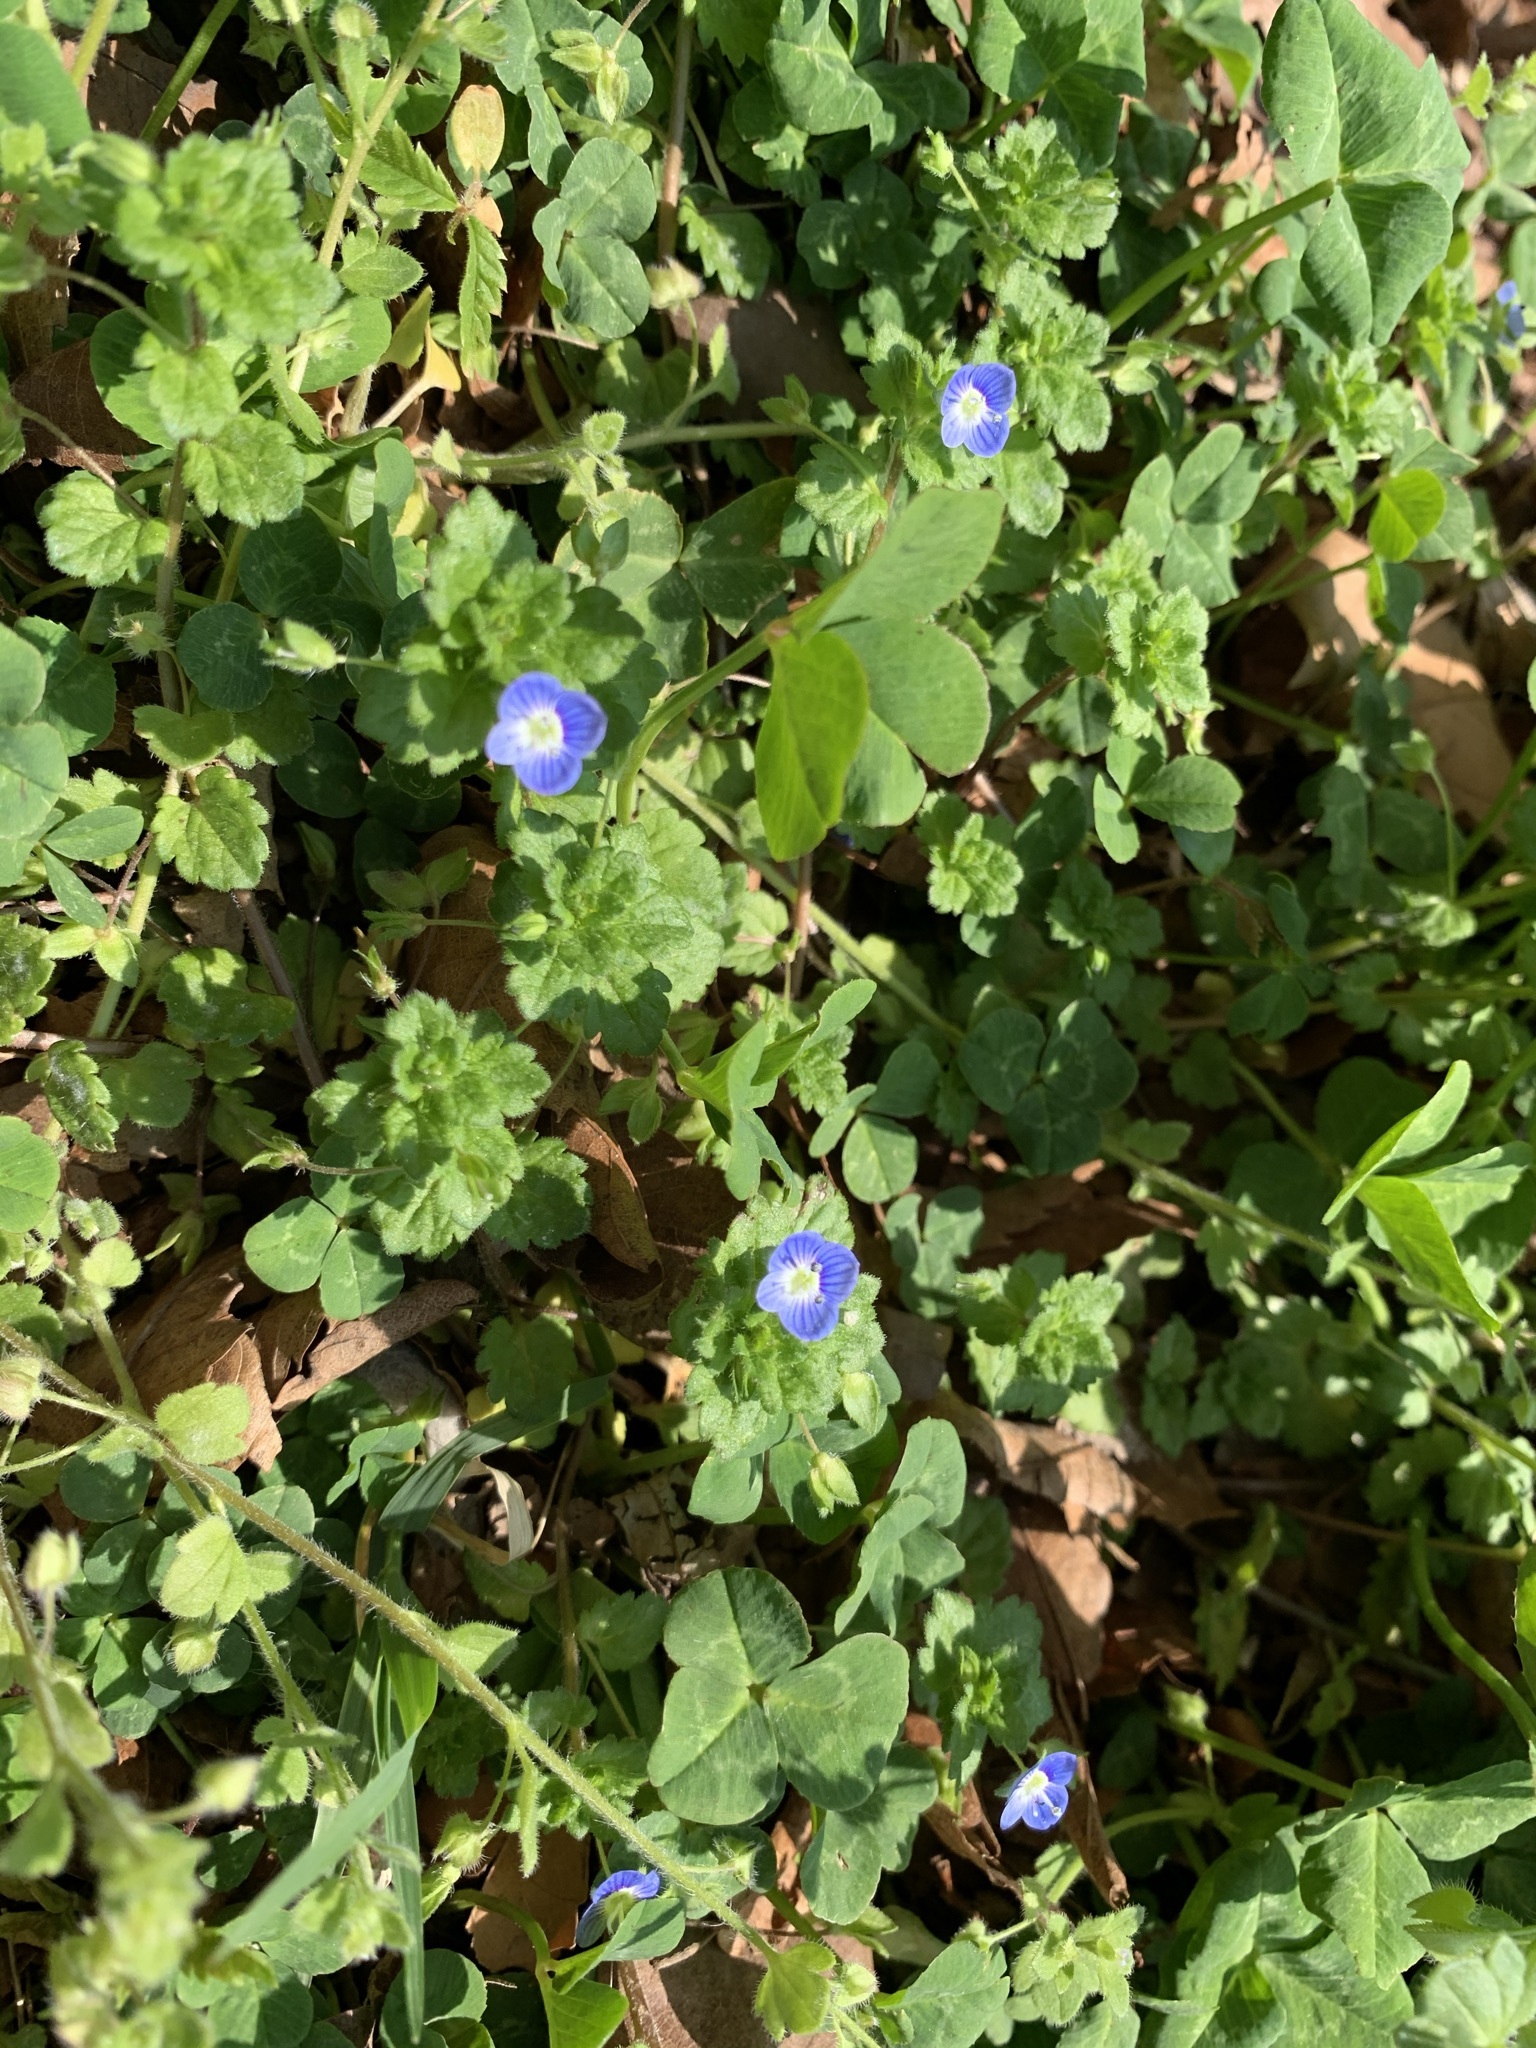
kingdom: Plantae
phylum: Tracheophyta
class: Magnoliopsida
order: Lamiales
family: Plantaginaceae
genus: Veronica
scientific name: Veronica persica
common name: Common field-speedwell
